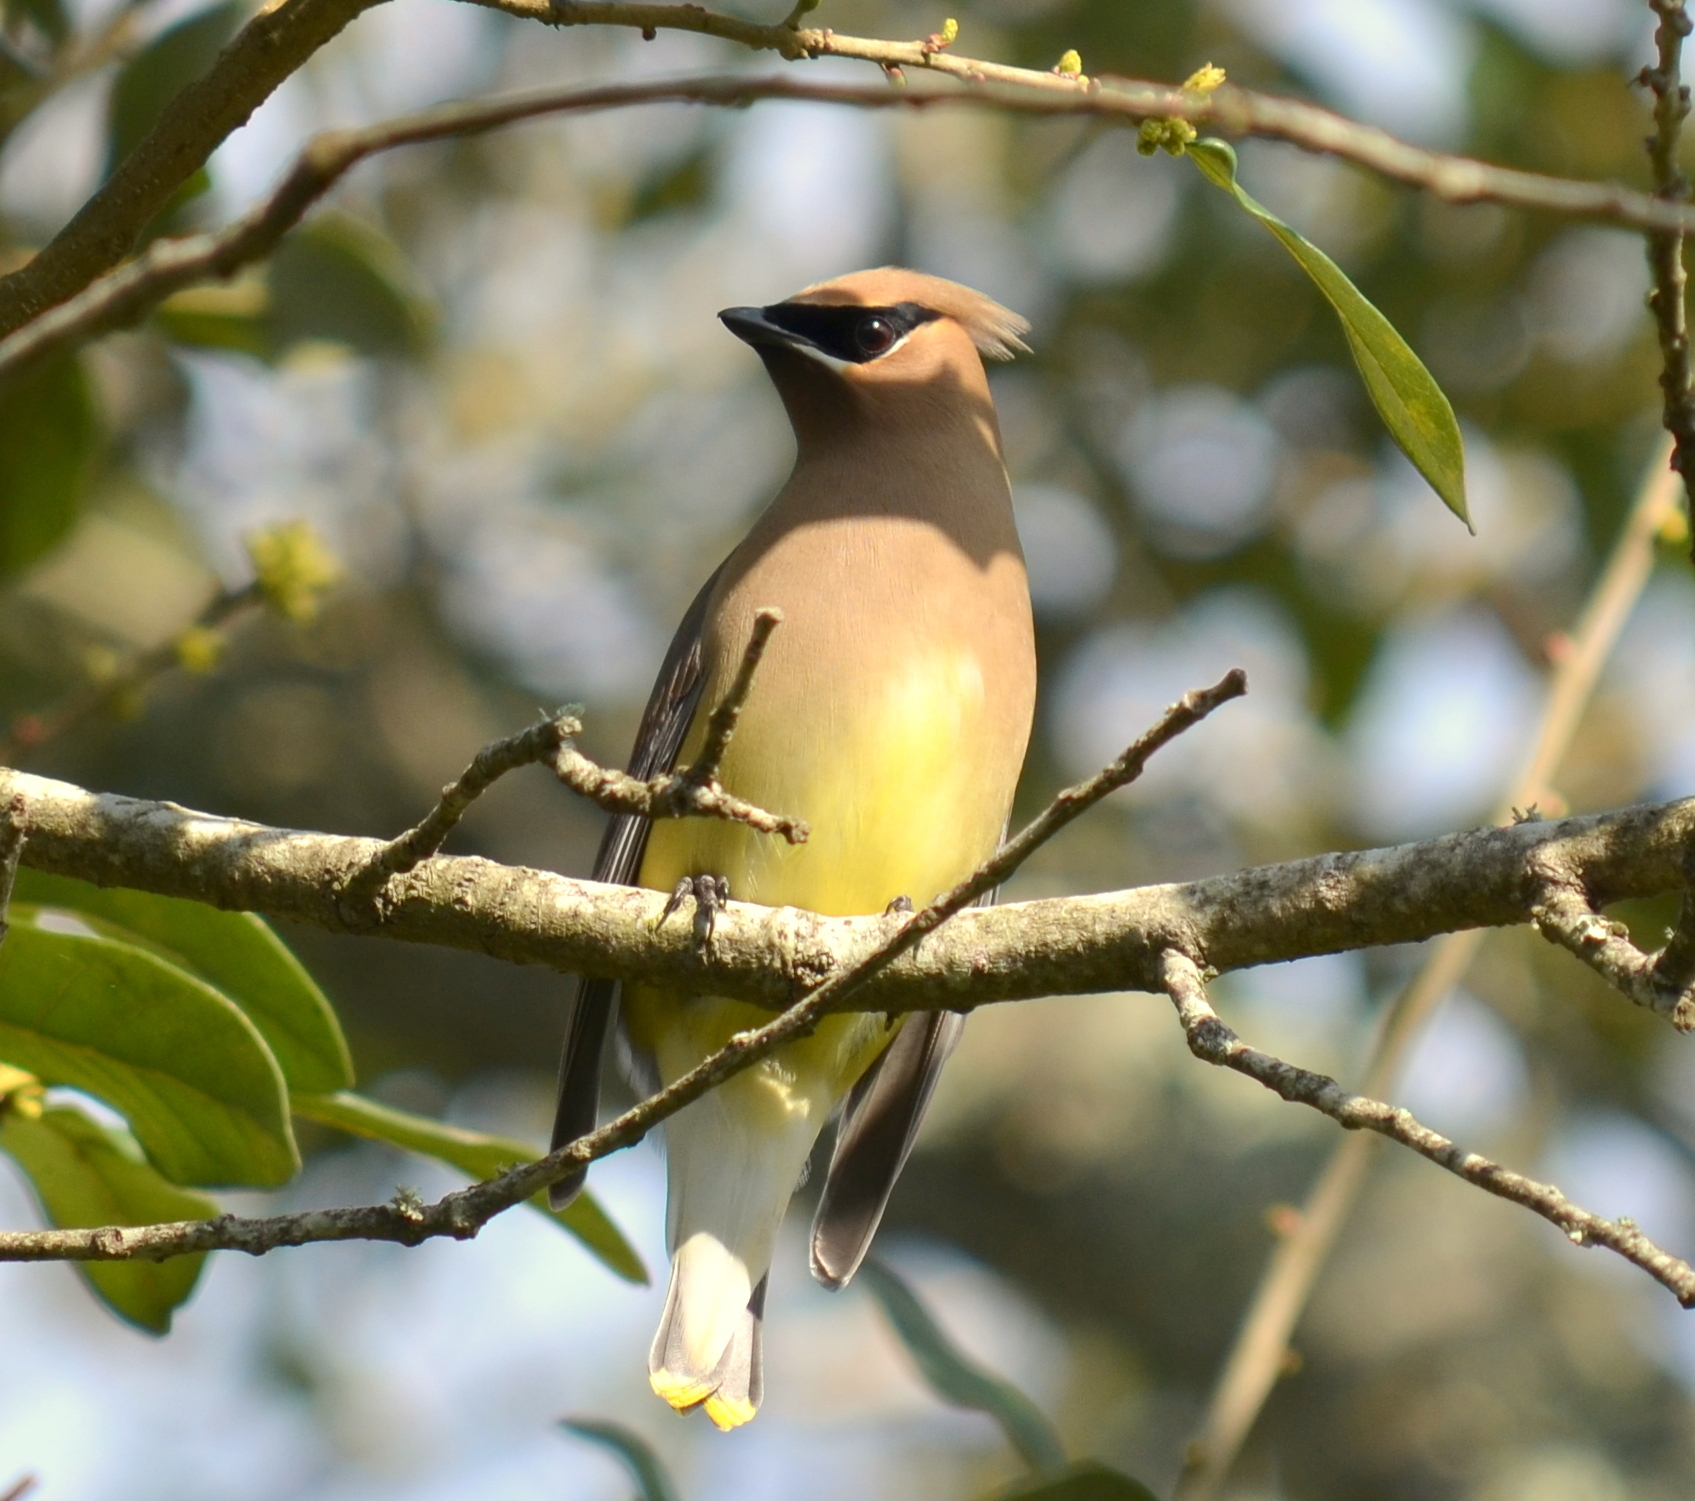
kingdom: Animalia
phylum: Chordata
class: Aves
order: Passeriformes
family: Bombycillidae
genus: Bombycilla
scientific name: Bombycilla cedrorum
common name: Cedar waxwing
